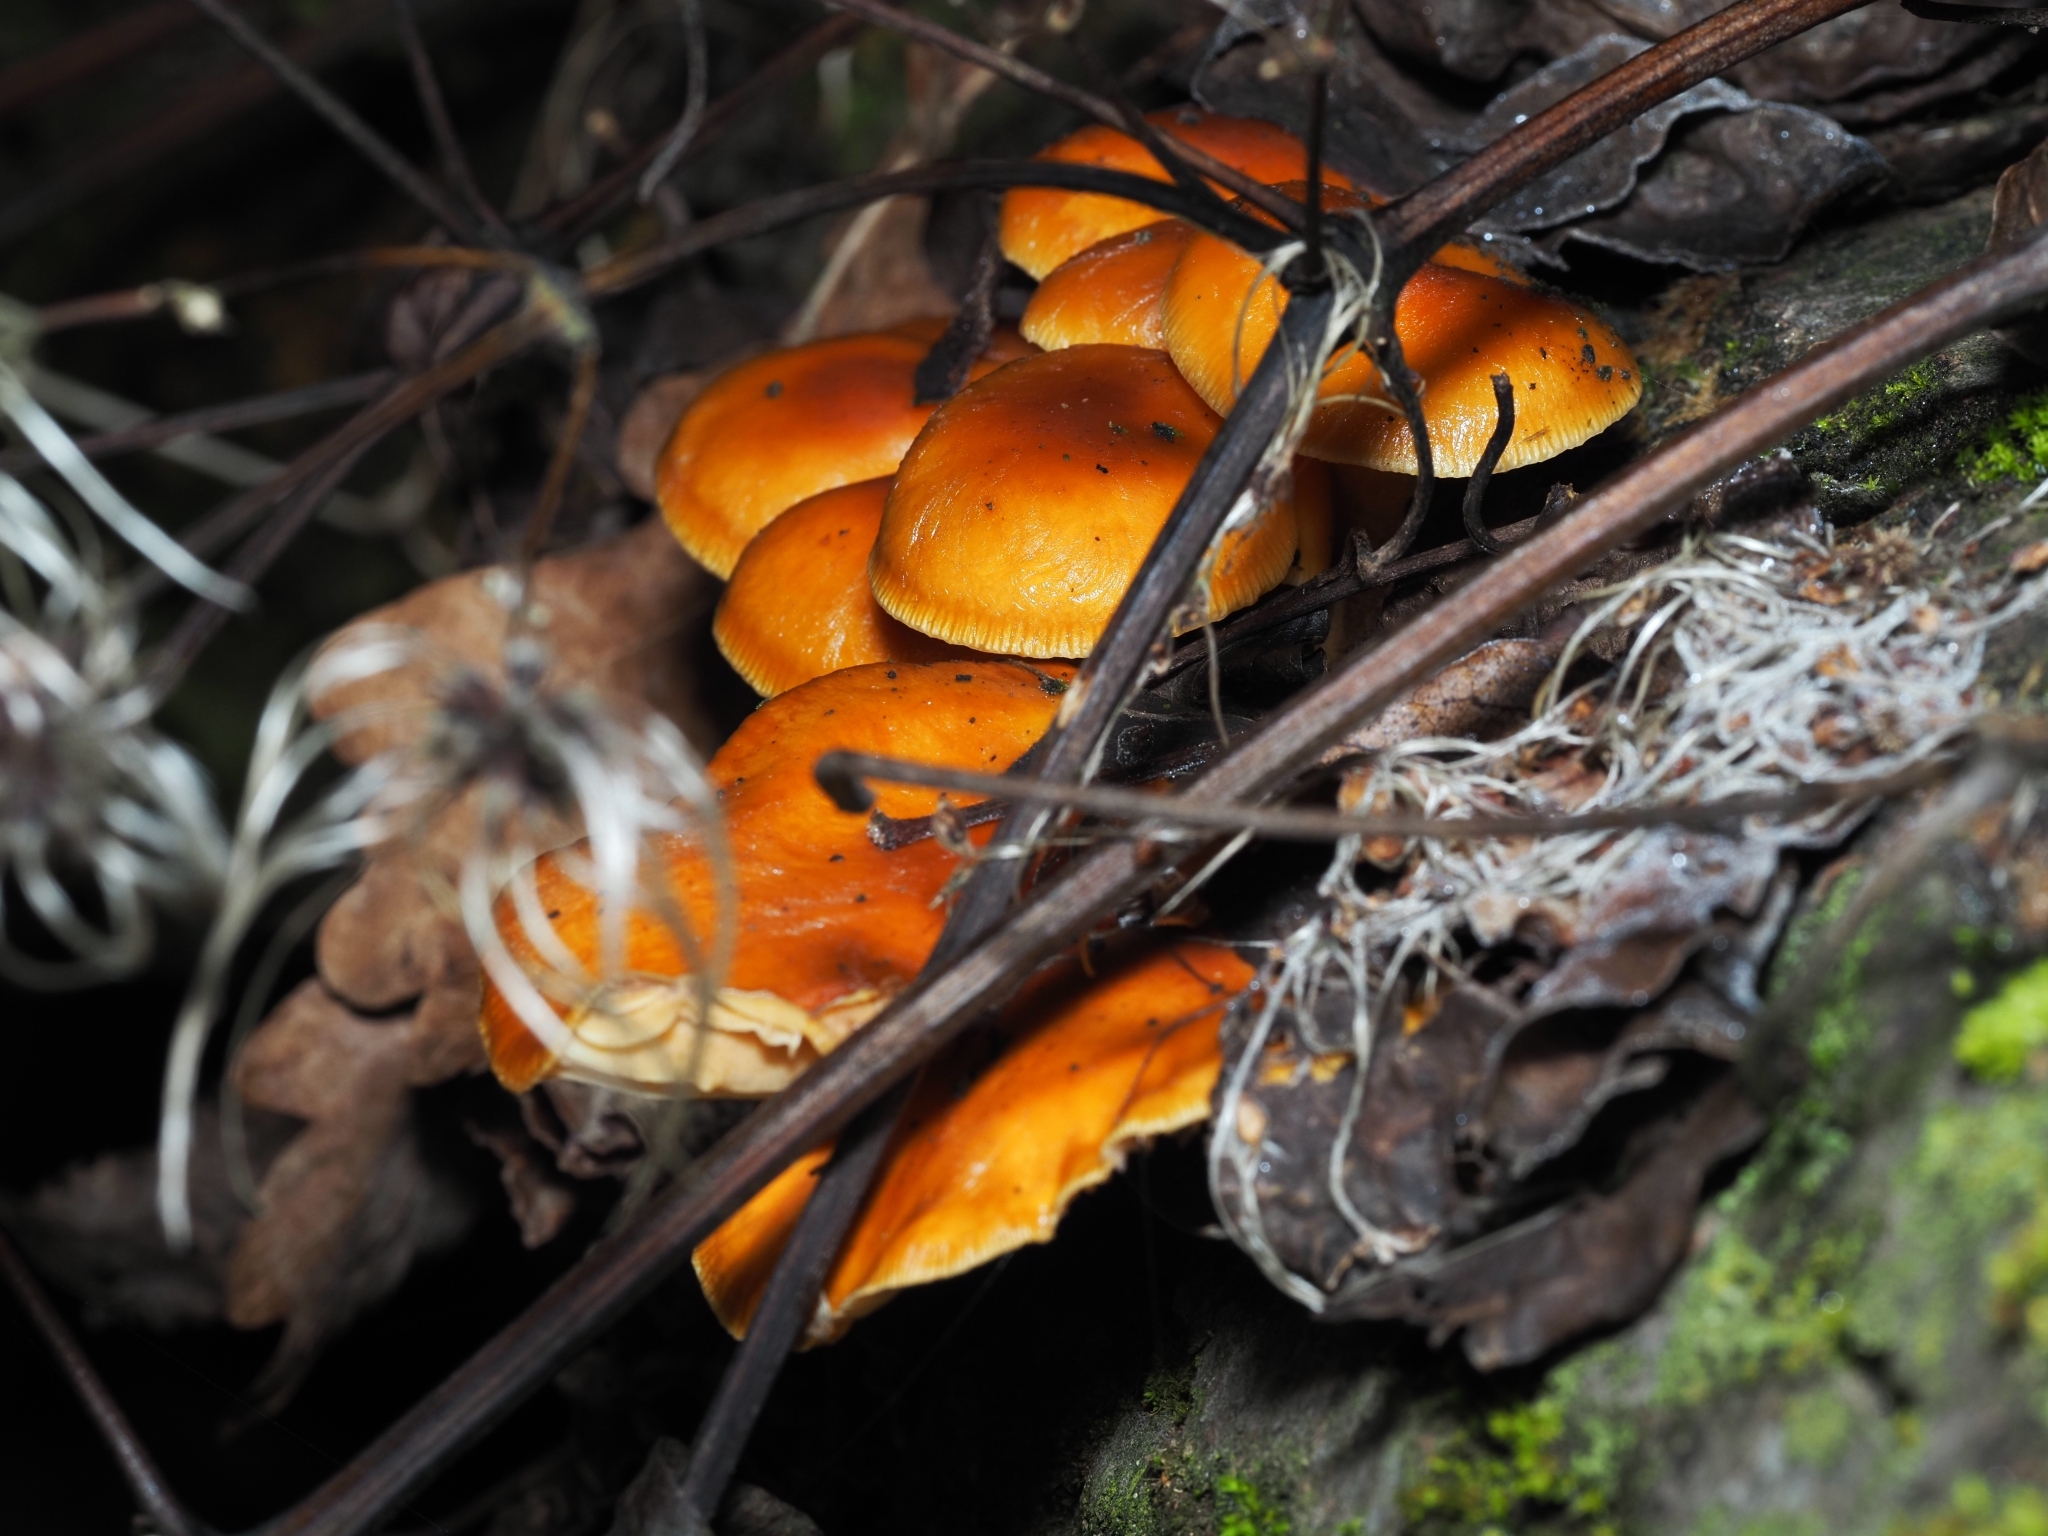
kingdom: Fungi
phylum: Basidiomycota
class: Agaricomycetes
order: Agaricales
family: Physalacriaceae
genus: Flammulina
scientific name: Flammulina
